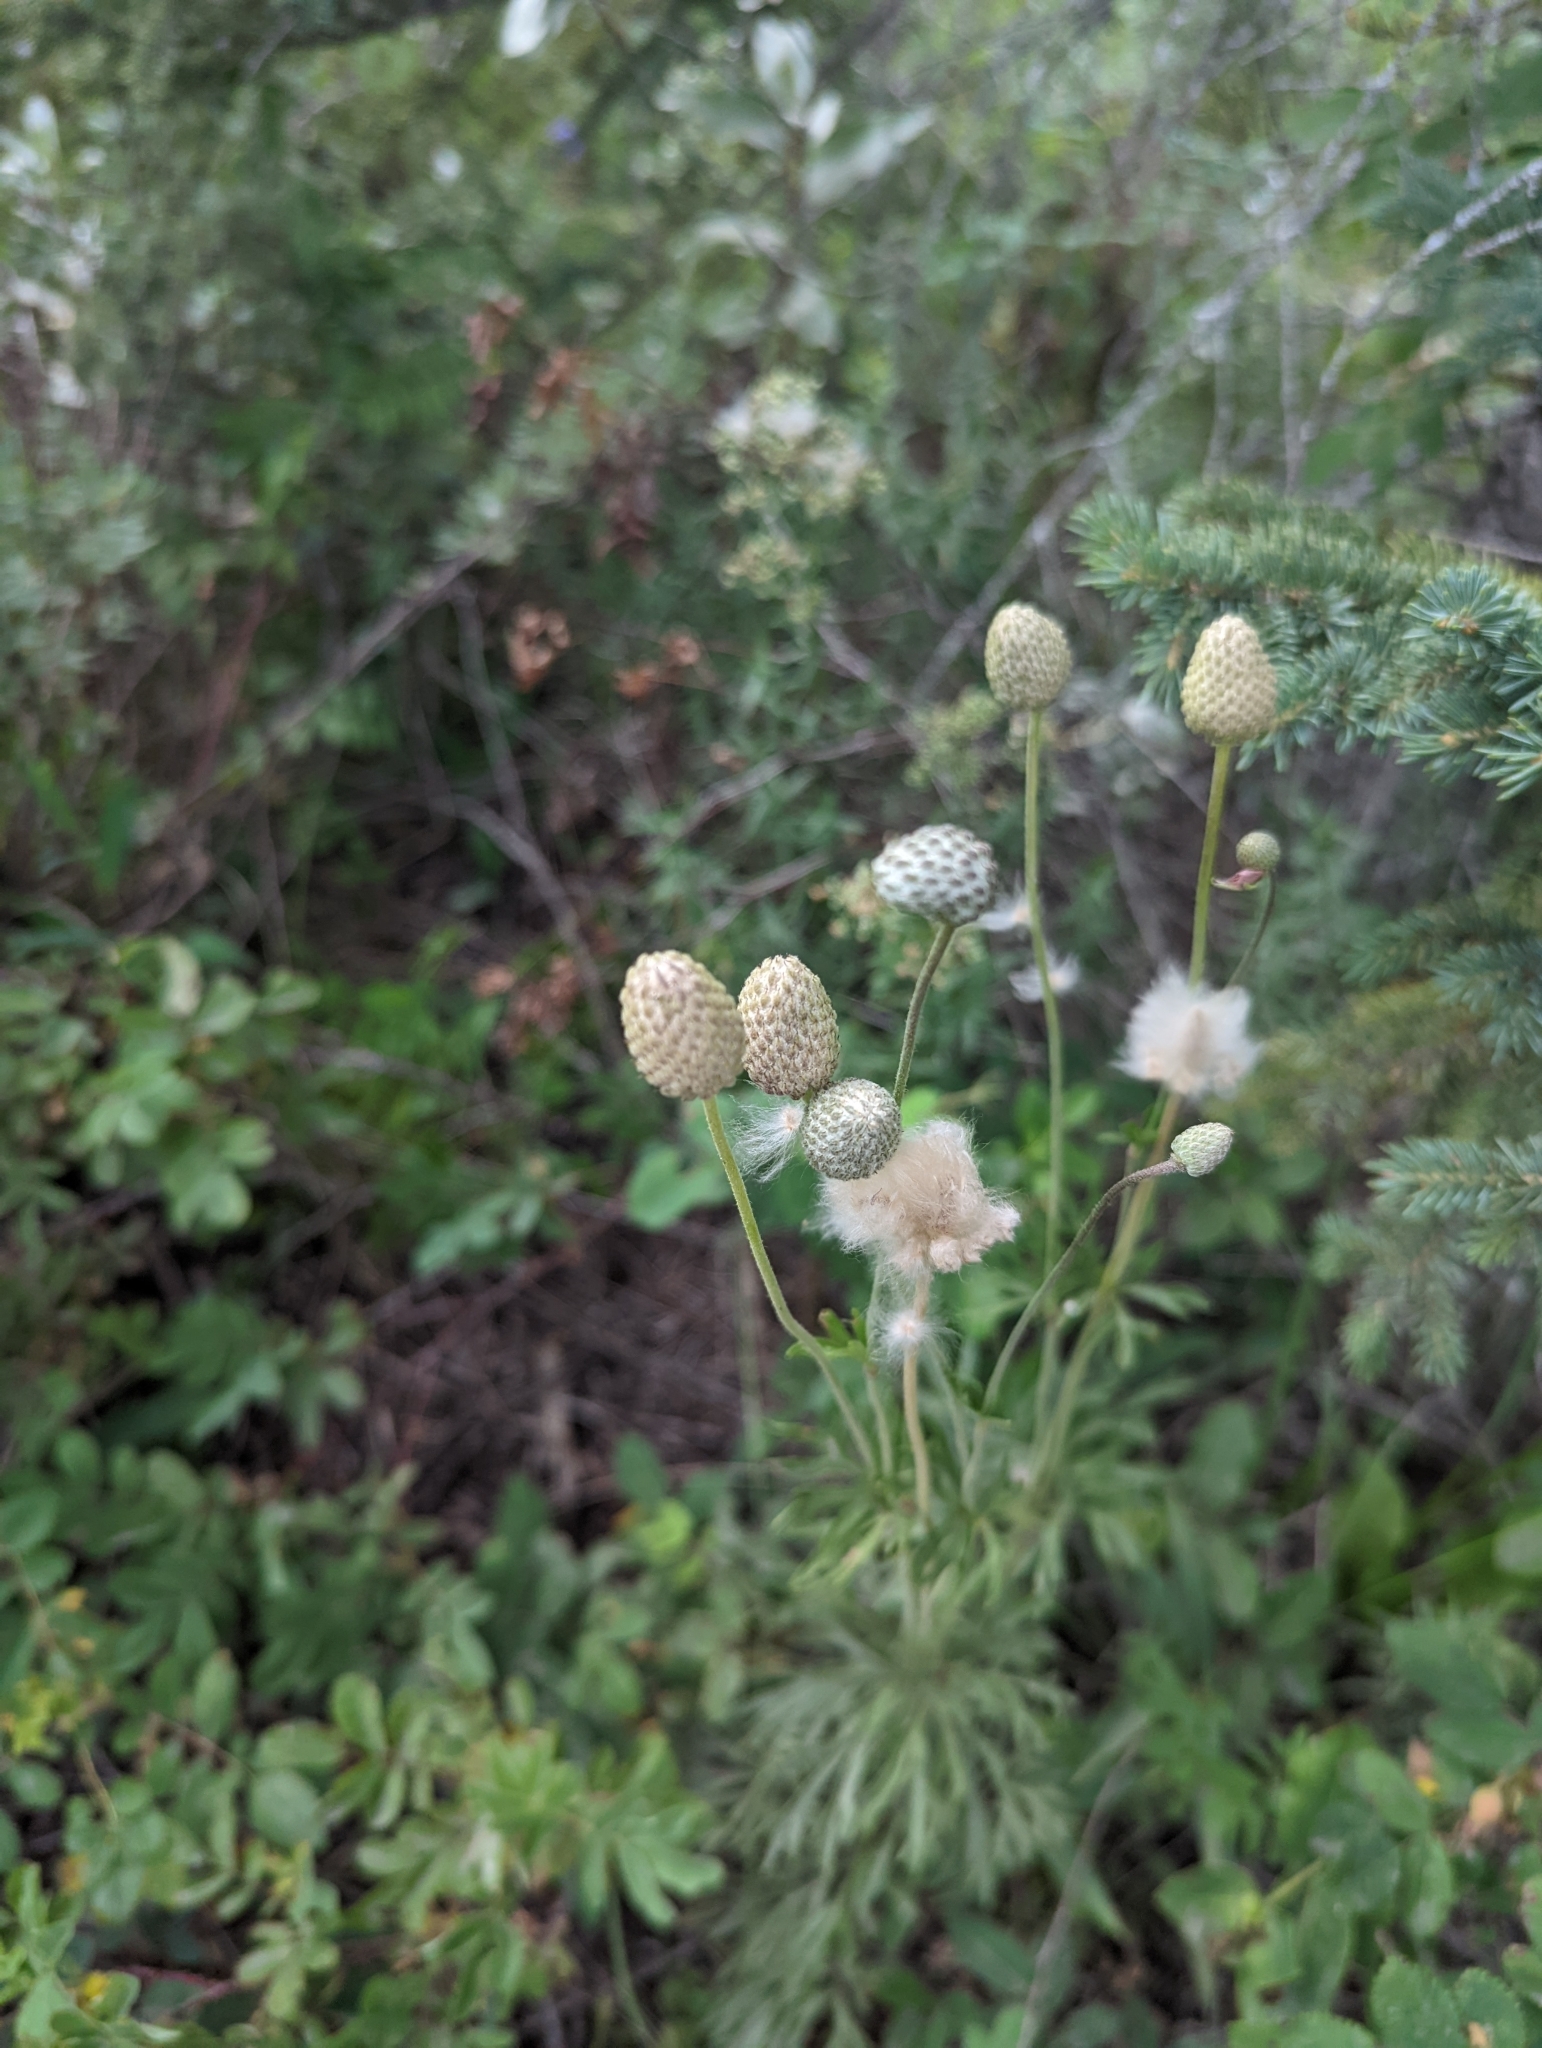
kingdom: Plantae
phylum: Tracheophyta
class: Magnoliopsida
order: Ranunculales
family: Ranunculaceae
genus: Anemone
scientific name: Anemone multifida
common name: Bird's-foot anemone
